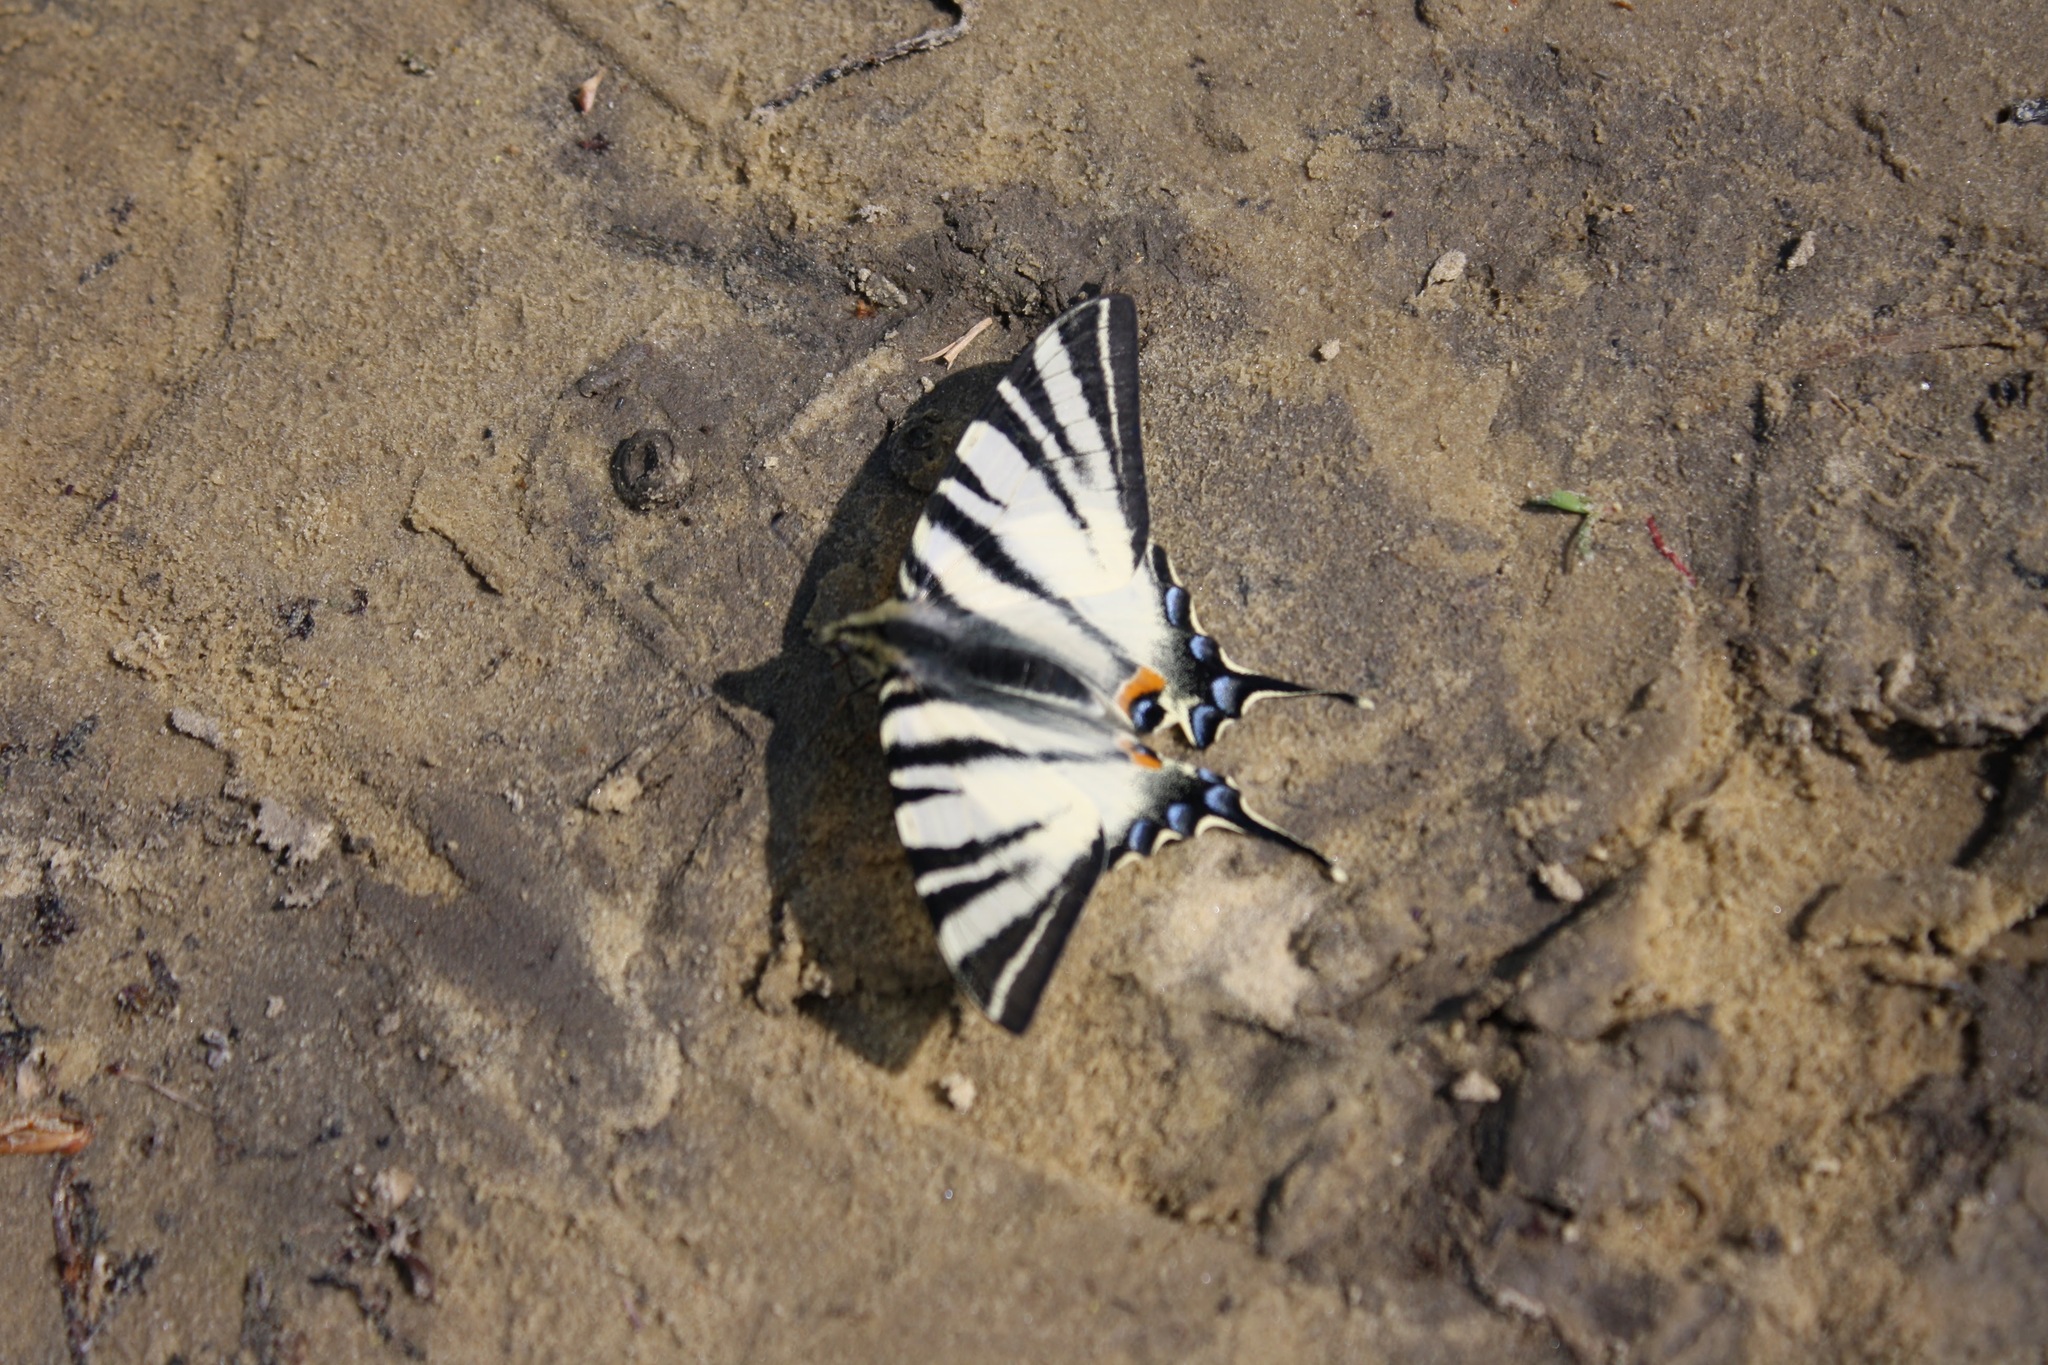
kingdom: Animalia
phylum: Arthropoda
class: Insecta
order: Lepidoptera
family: Papilionidae
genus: Iphiclides
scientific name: Iphiclides podalirius
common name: Scarce swallowtail
